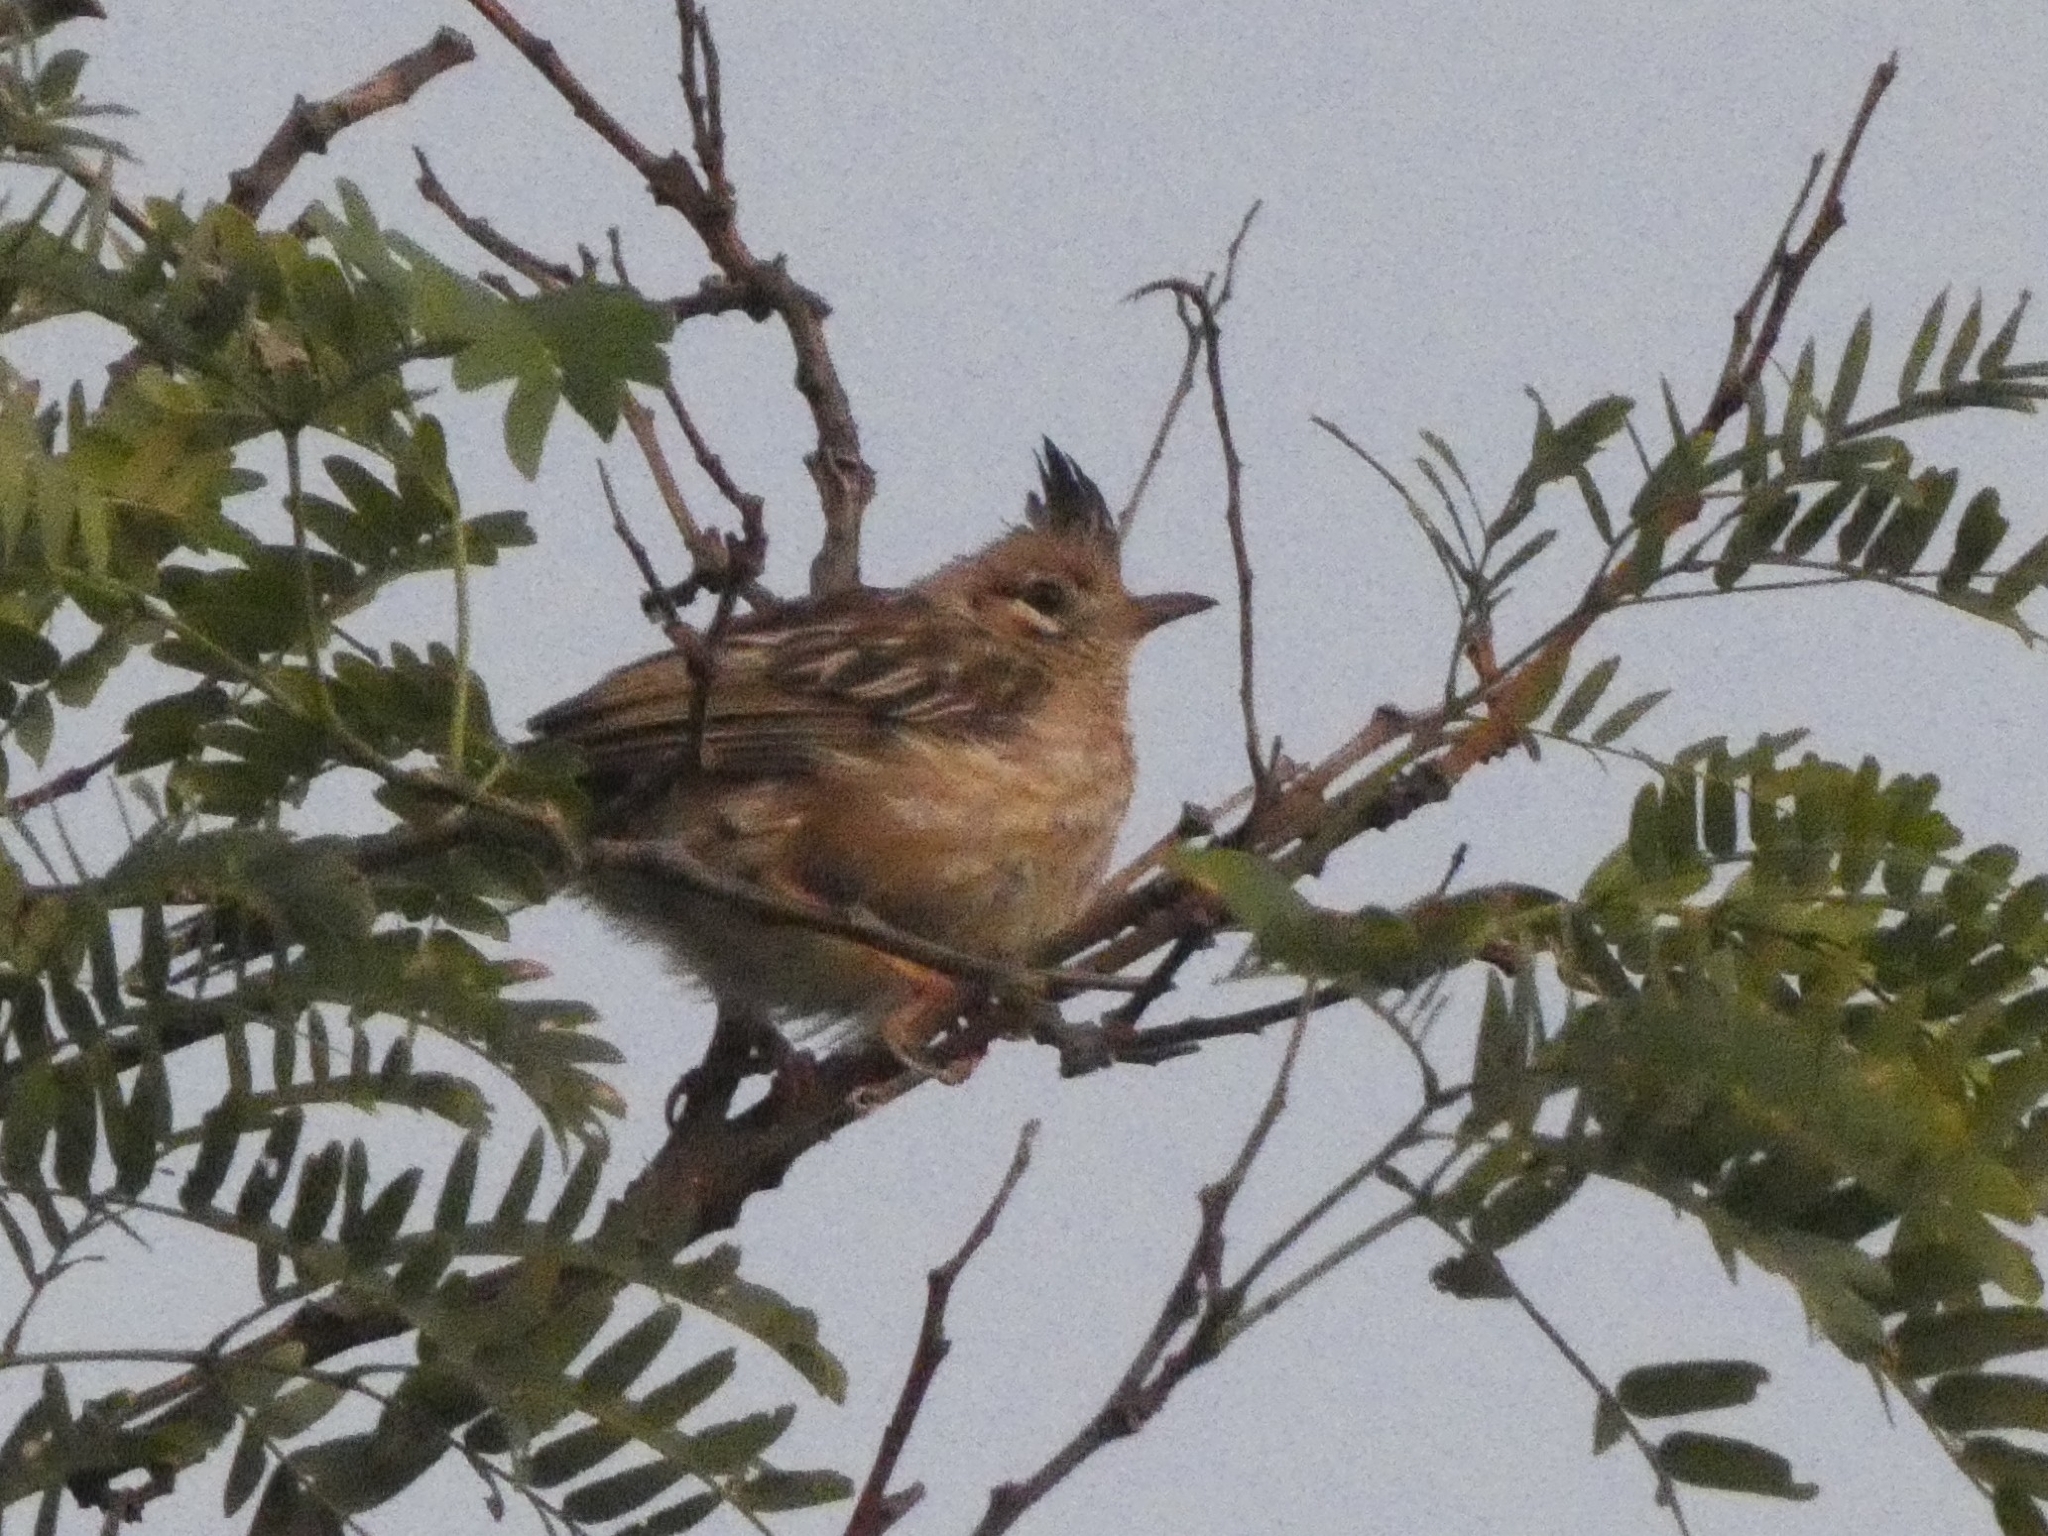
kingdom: Animalia
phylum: Chordata
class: Aves
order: Passeriformes
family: Furnariidae
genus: Coryphistera
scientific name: Coryphistera alaudina
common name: Lark-like brushrunner
